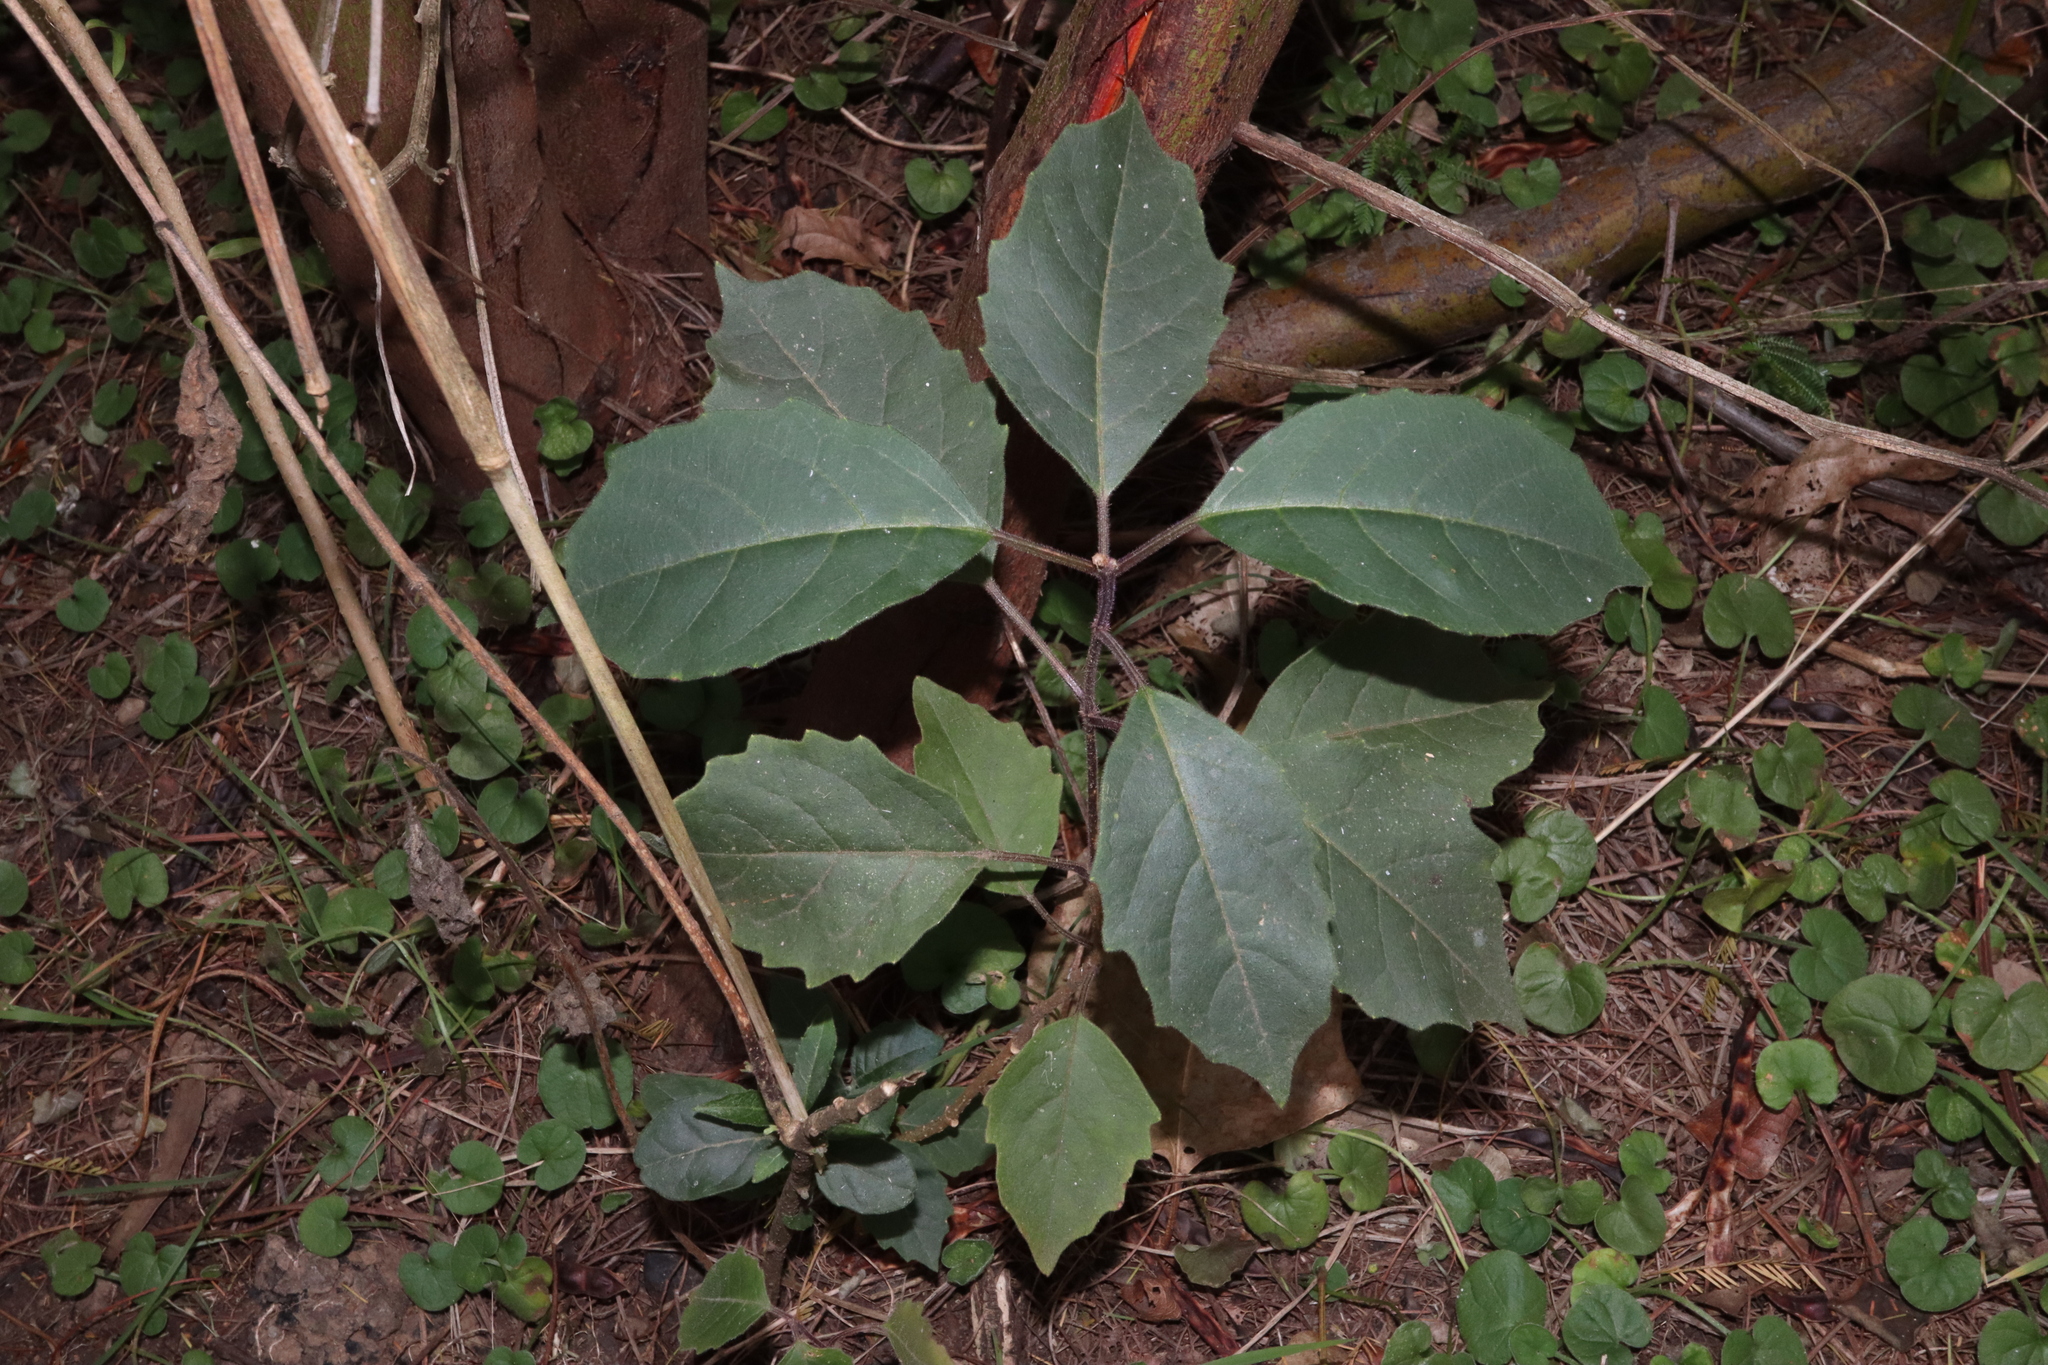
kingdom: Plantae
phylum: Tracheophyta
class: Magnoliopsida
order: Lamiales
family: Lamiaceae
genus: Clerodendrum
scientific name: Clerodendrum tomentosum
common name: Hairy clerodendrum
